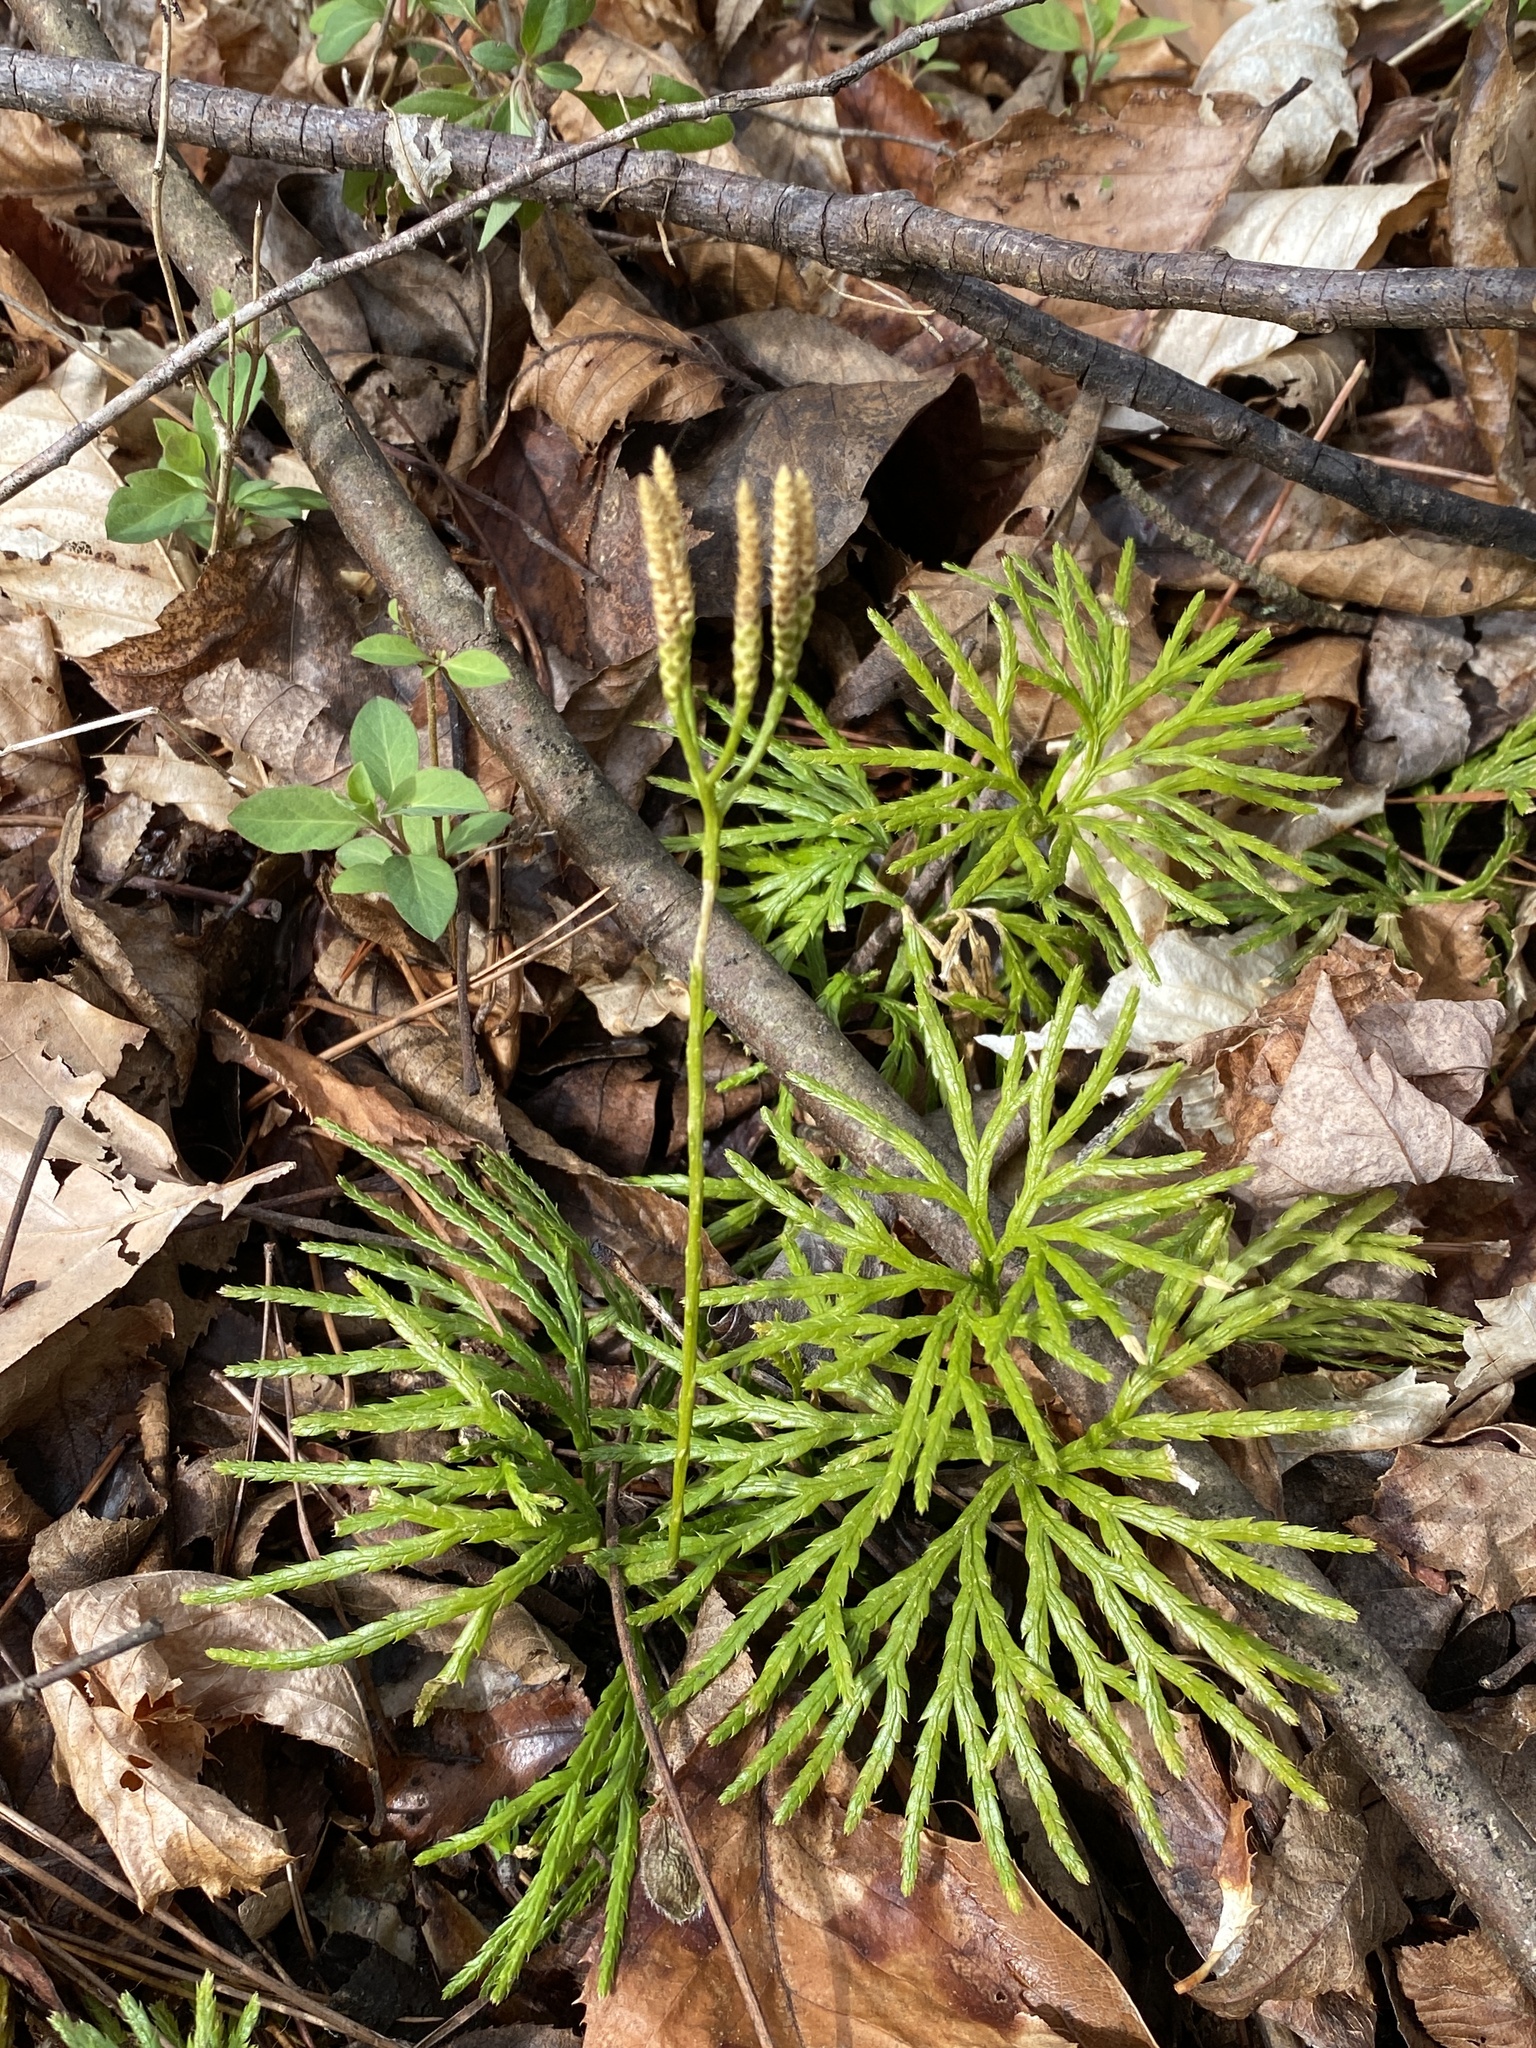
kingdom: Plantae
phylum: Tracheophyta
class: Lycopodiopsida
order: Lycopodiales
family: Lycopodiaceae
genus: Diphasiastrum
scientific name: Diphasiastrum digitatum
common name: Southern running-pine
